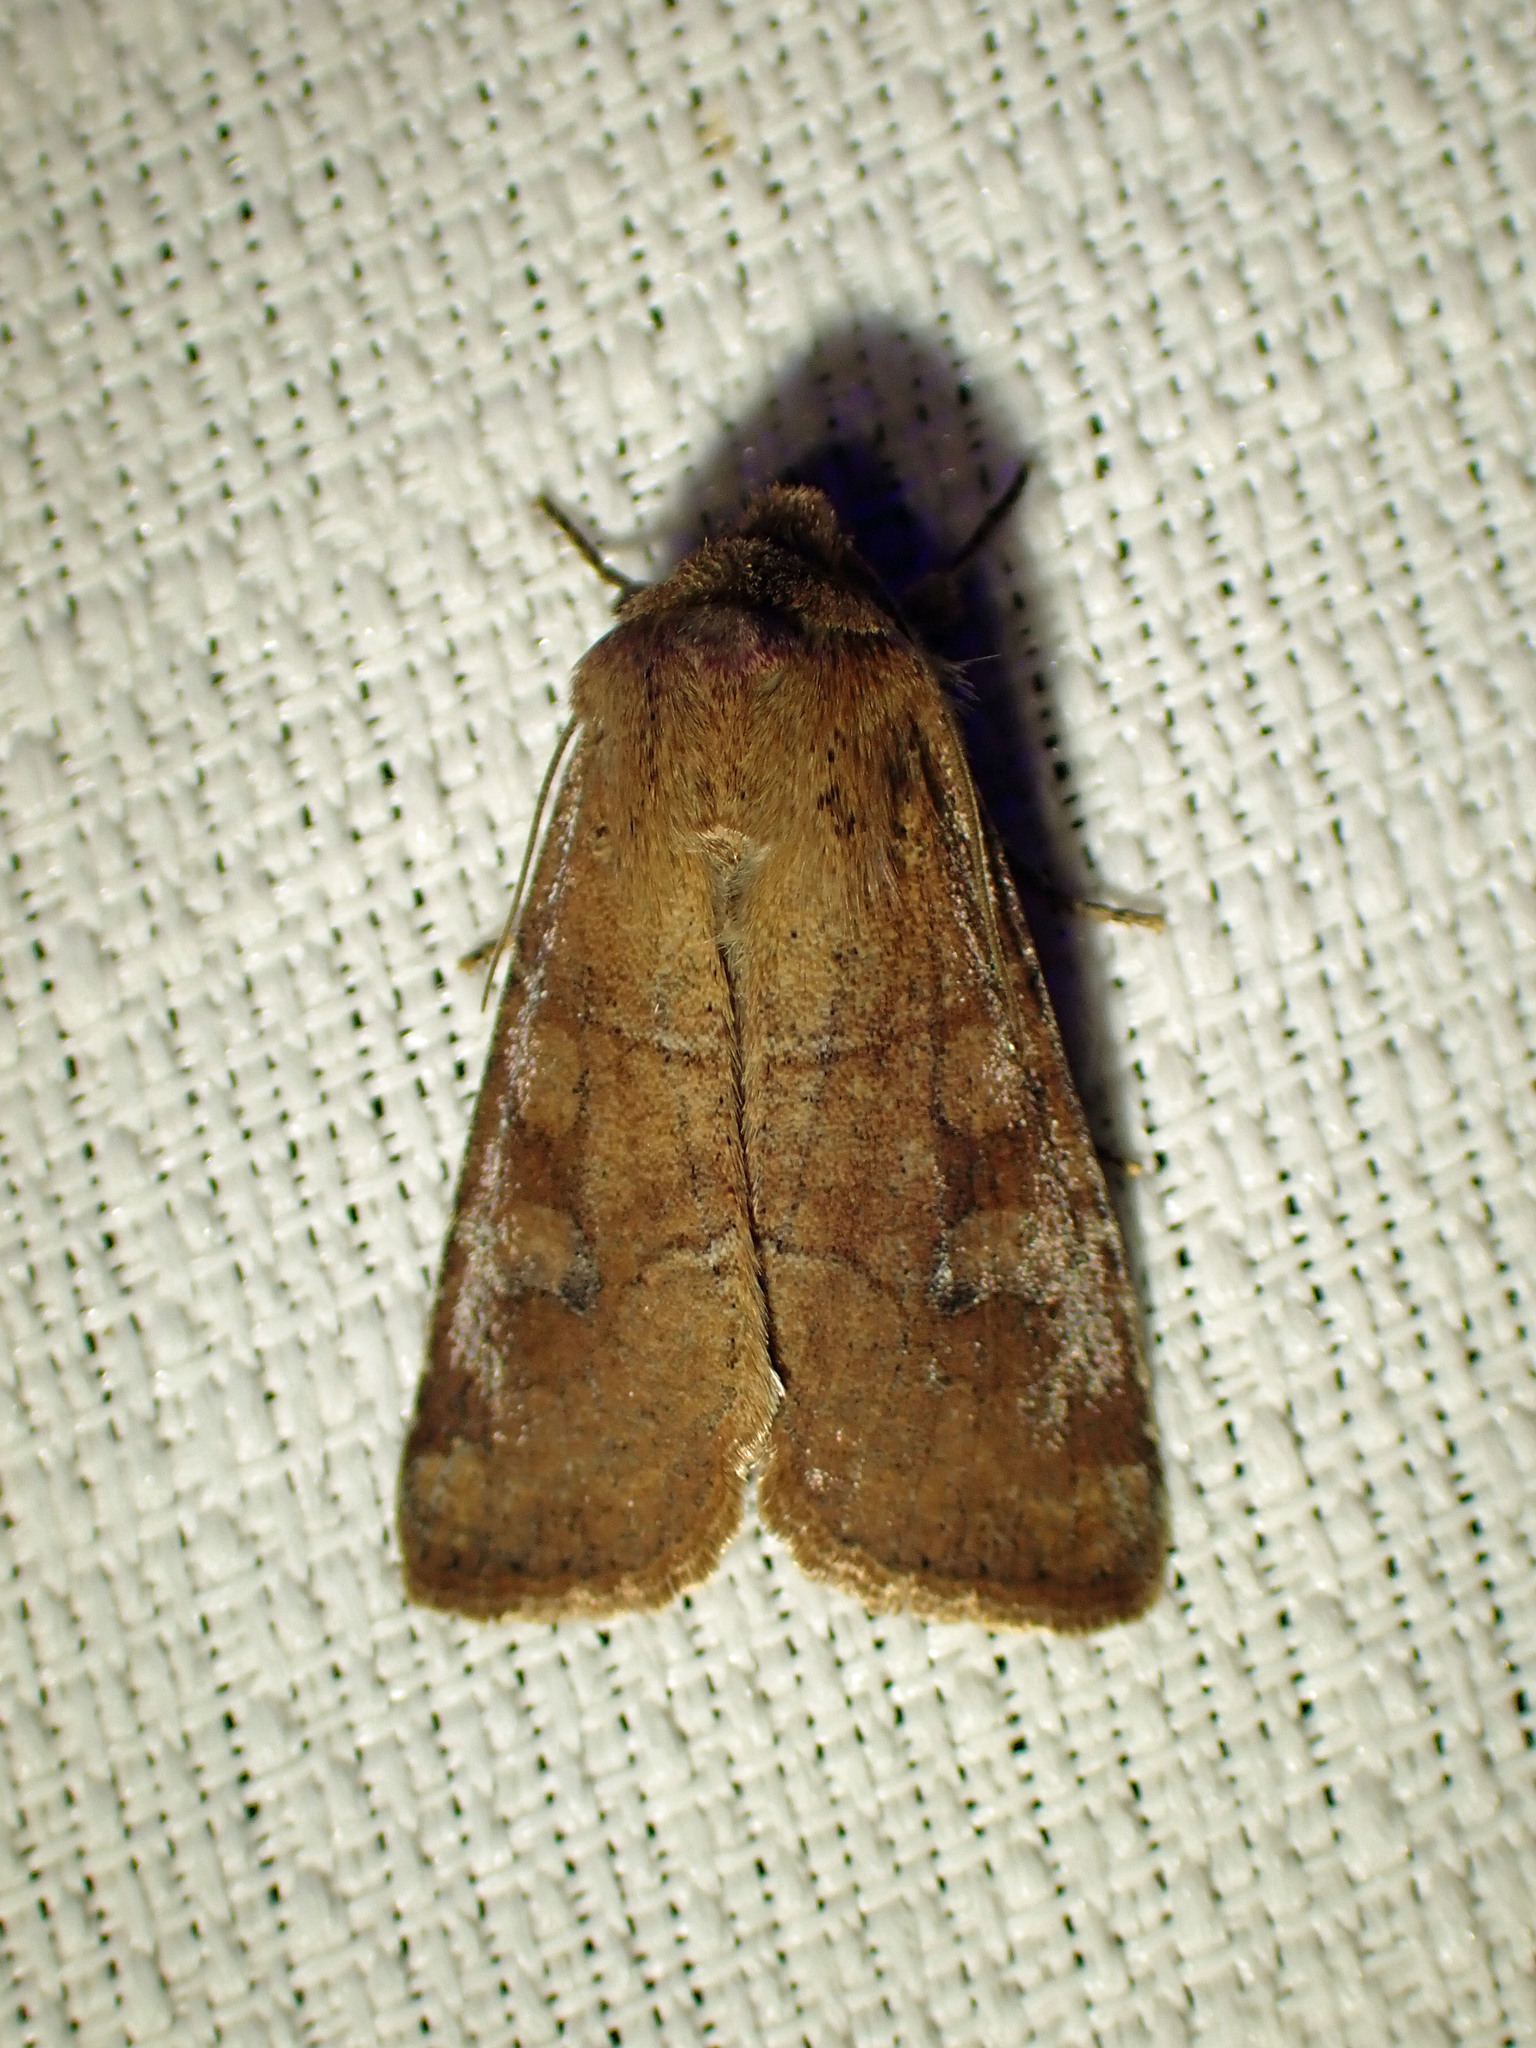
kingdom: Animalia
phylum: Arthropoda
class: Insecta
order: Lepidoptera
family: Noctuidae
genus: Crocigrapha
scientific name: Crocigrapha normani
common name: Norman's quaker
